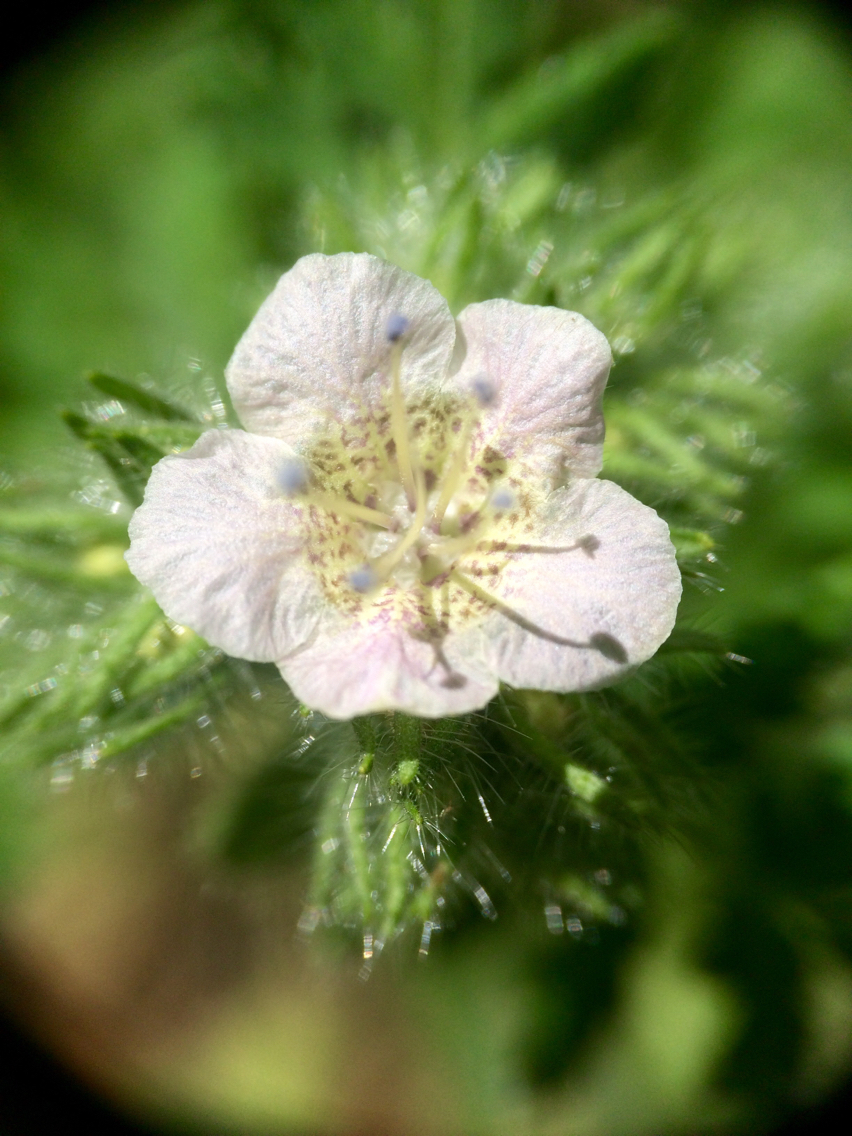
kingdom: Plantae
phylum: Tracheophyta
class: Magnoliopsida
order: Boraginales
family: Hydrophyllaceae
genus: Phacelia
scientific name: Phacelia cicutaria
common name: Caterpillar phacelia
